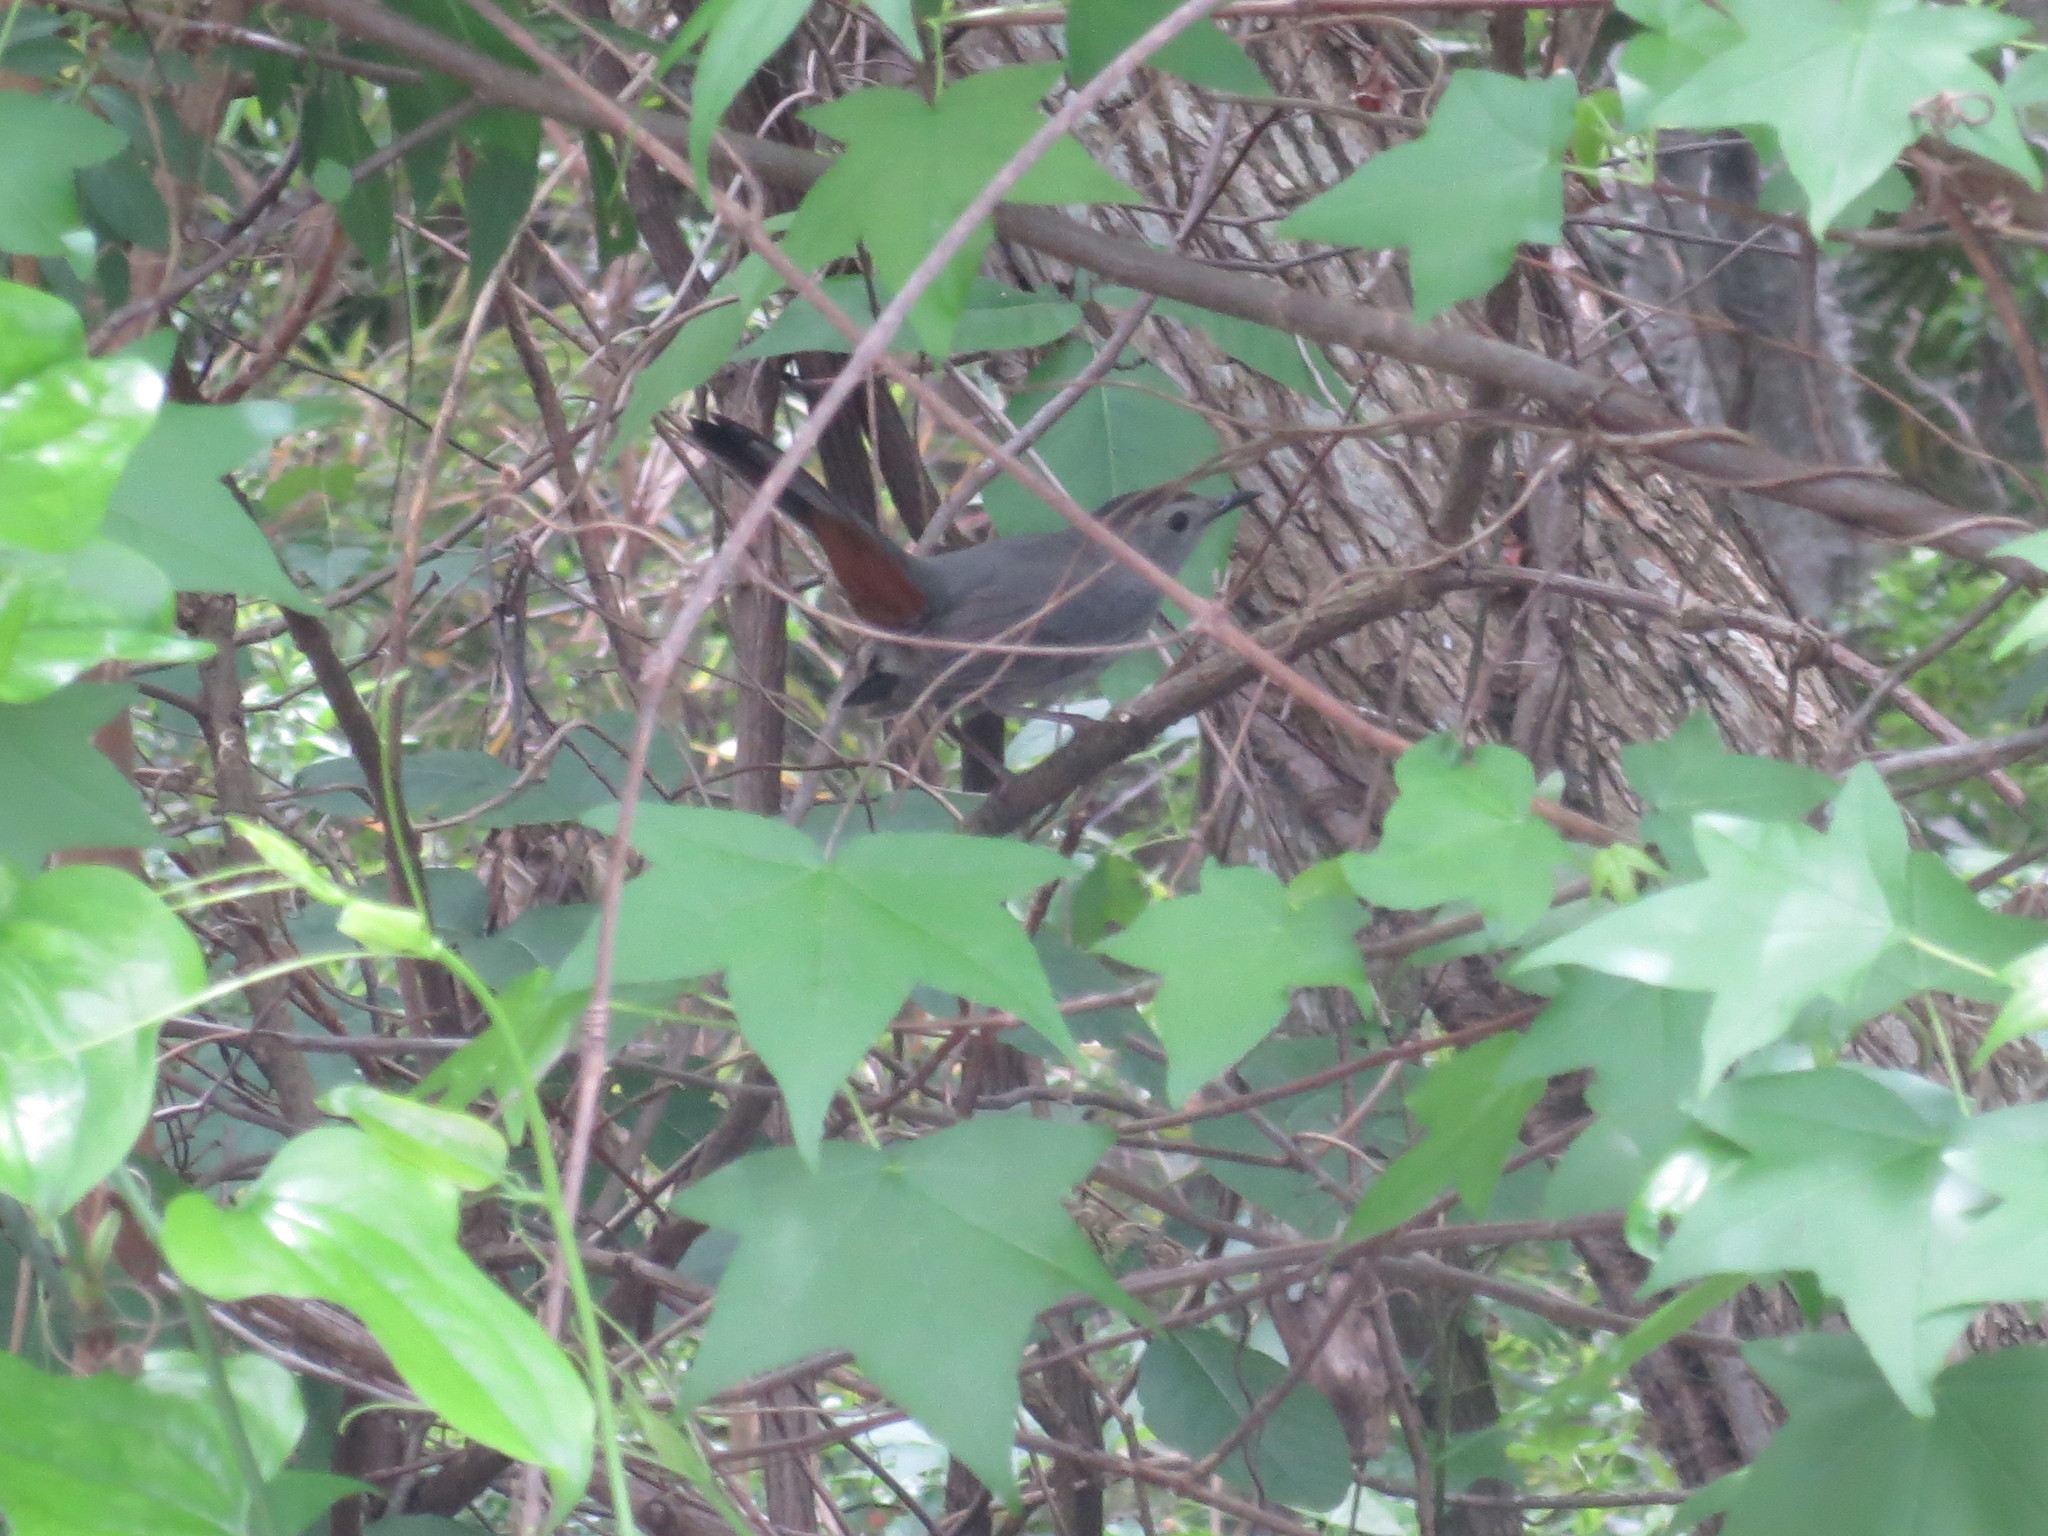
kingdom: Animalia
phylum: Chordata
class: Aves
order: Passeriformes
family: Mimidae
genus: Dumetella
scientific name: Dumetella carolinensis
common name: Gray catbird
